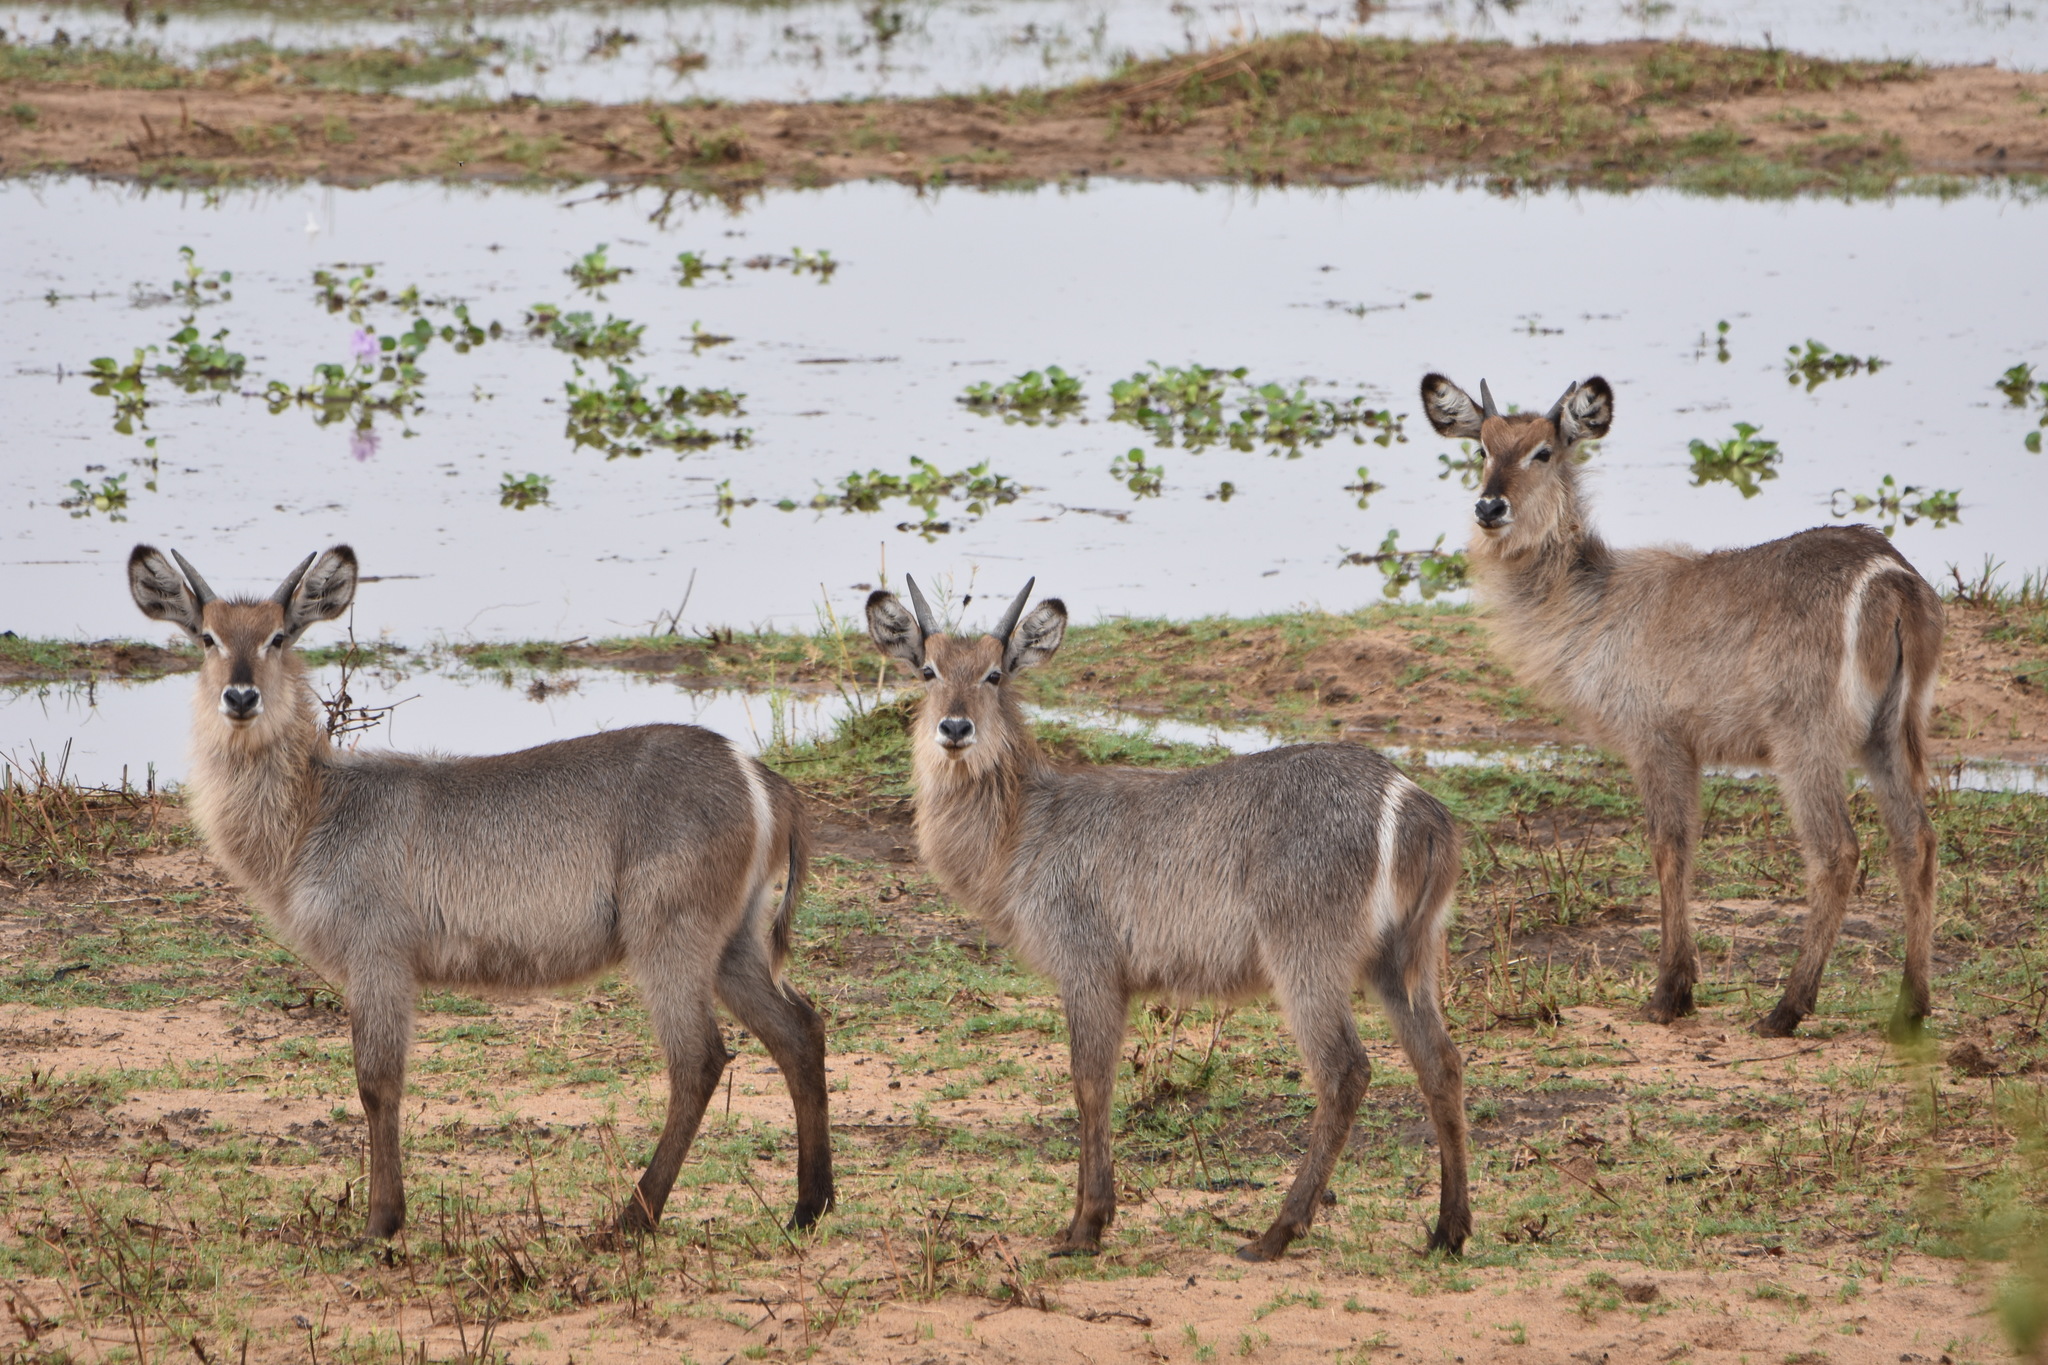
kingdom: Animalia
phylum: Chordata
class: Mammalia
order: Artiodactyla
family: Bovidae
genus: Kobus
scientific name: Kobus ellipsiprymnus
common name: Waterbuck
